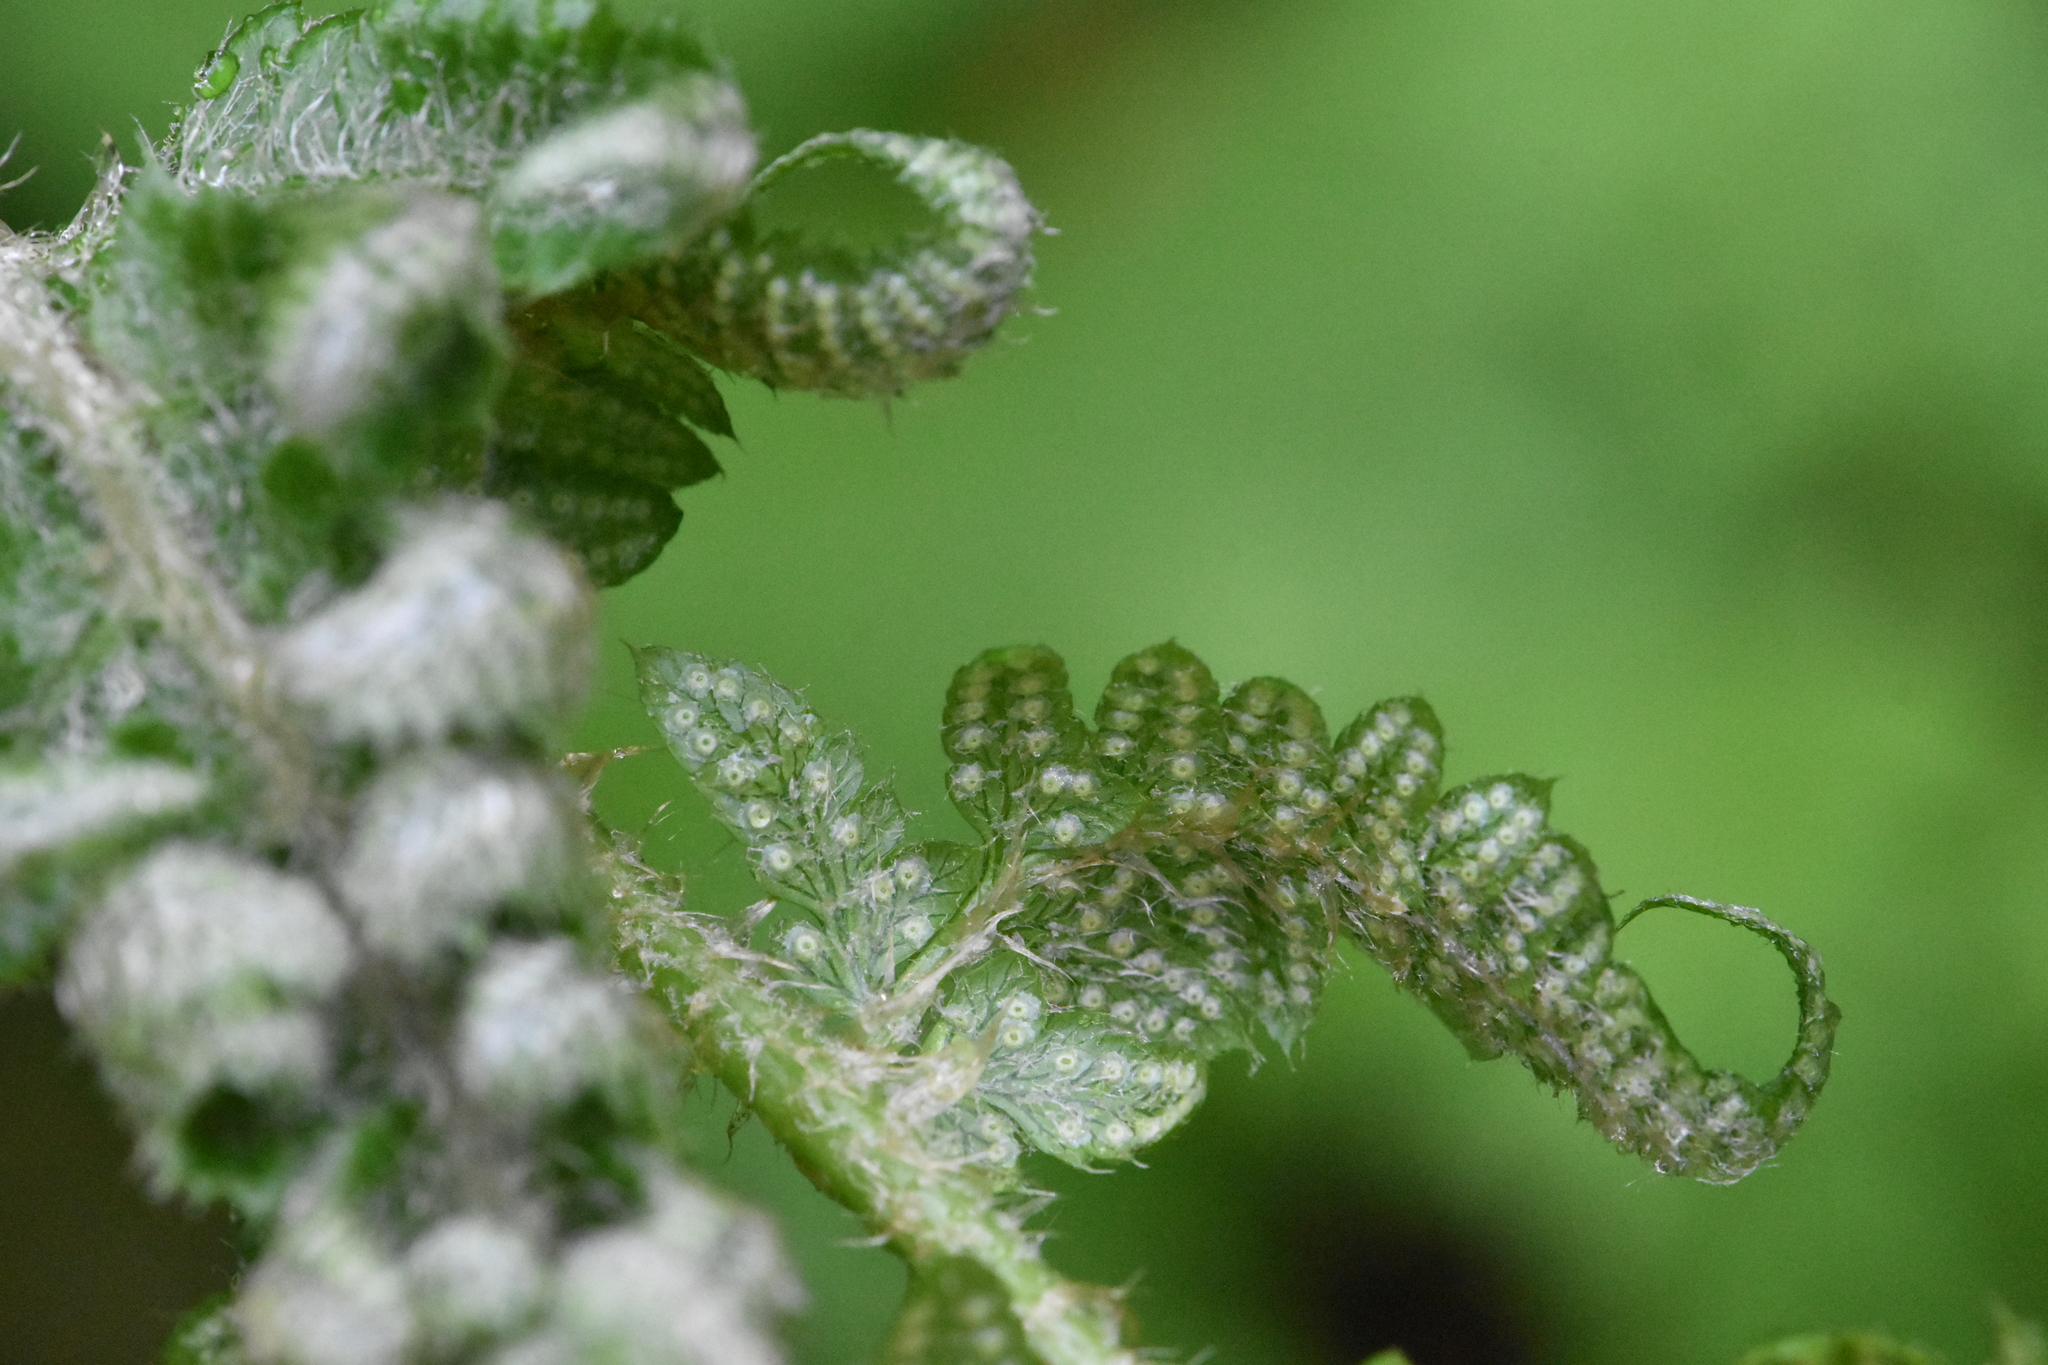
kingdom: Plantae
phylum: Tracheophyta
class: Polypodiopsida
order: Polypodiales
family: Dryopteridaceae
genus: Polystichum
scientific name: Polystichum braunii
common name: Braun's holly fern
